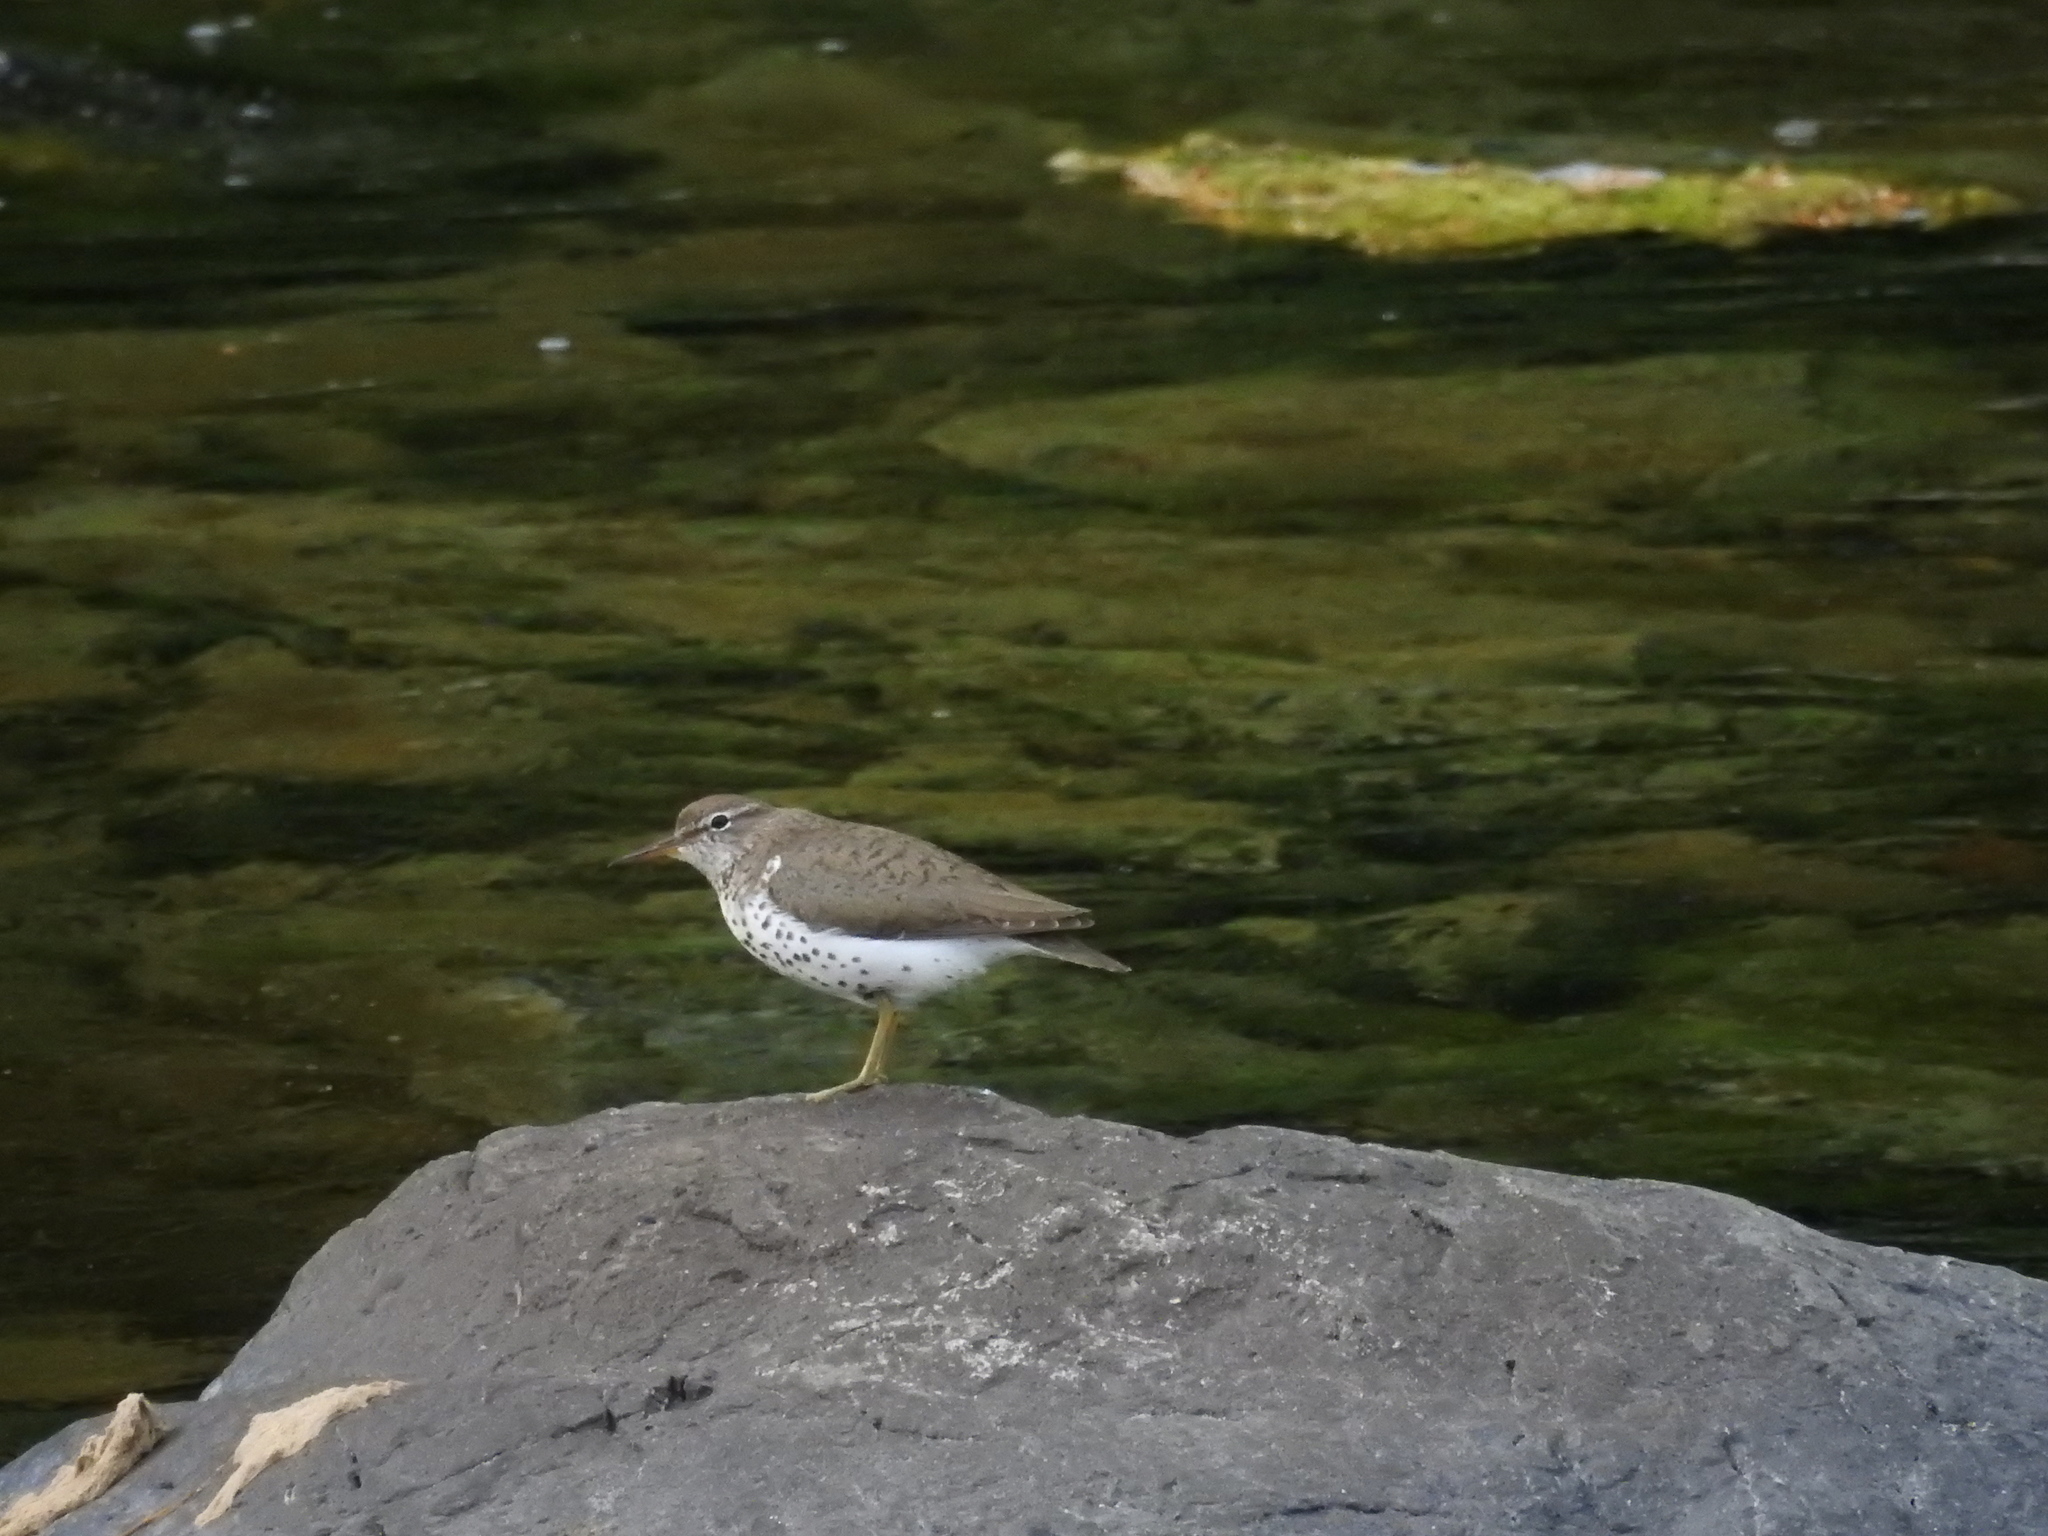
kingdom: Animalia
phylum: Chordata
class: Aves
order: Charadriiformes
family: Scolopacidae
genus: Actitis
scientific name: Actitis macularius
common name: Spotted sandpiper
